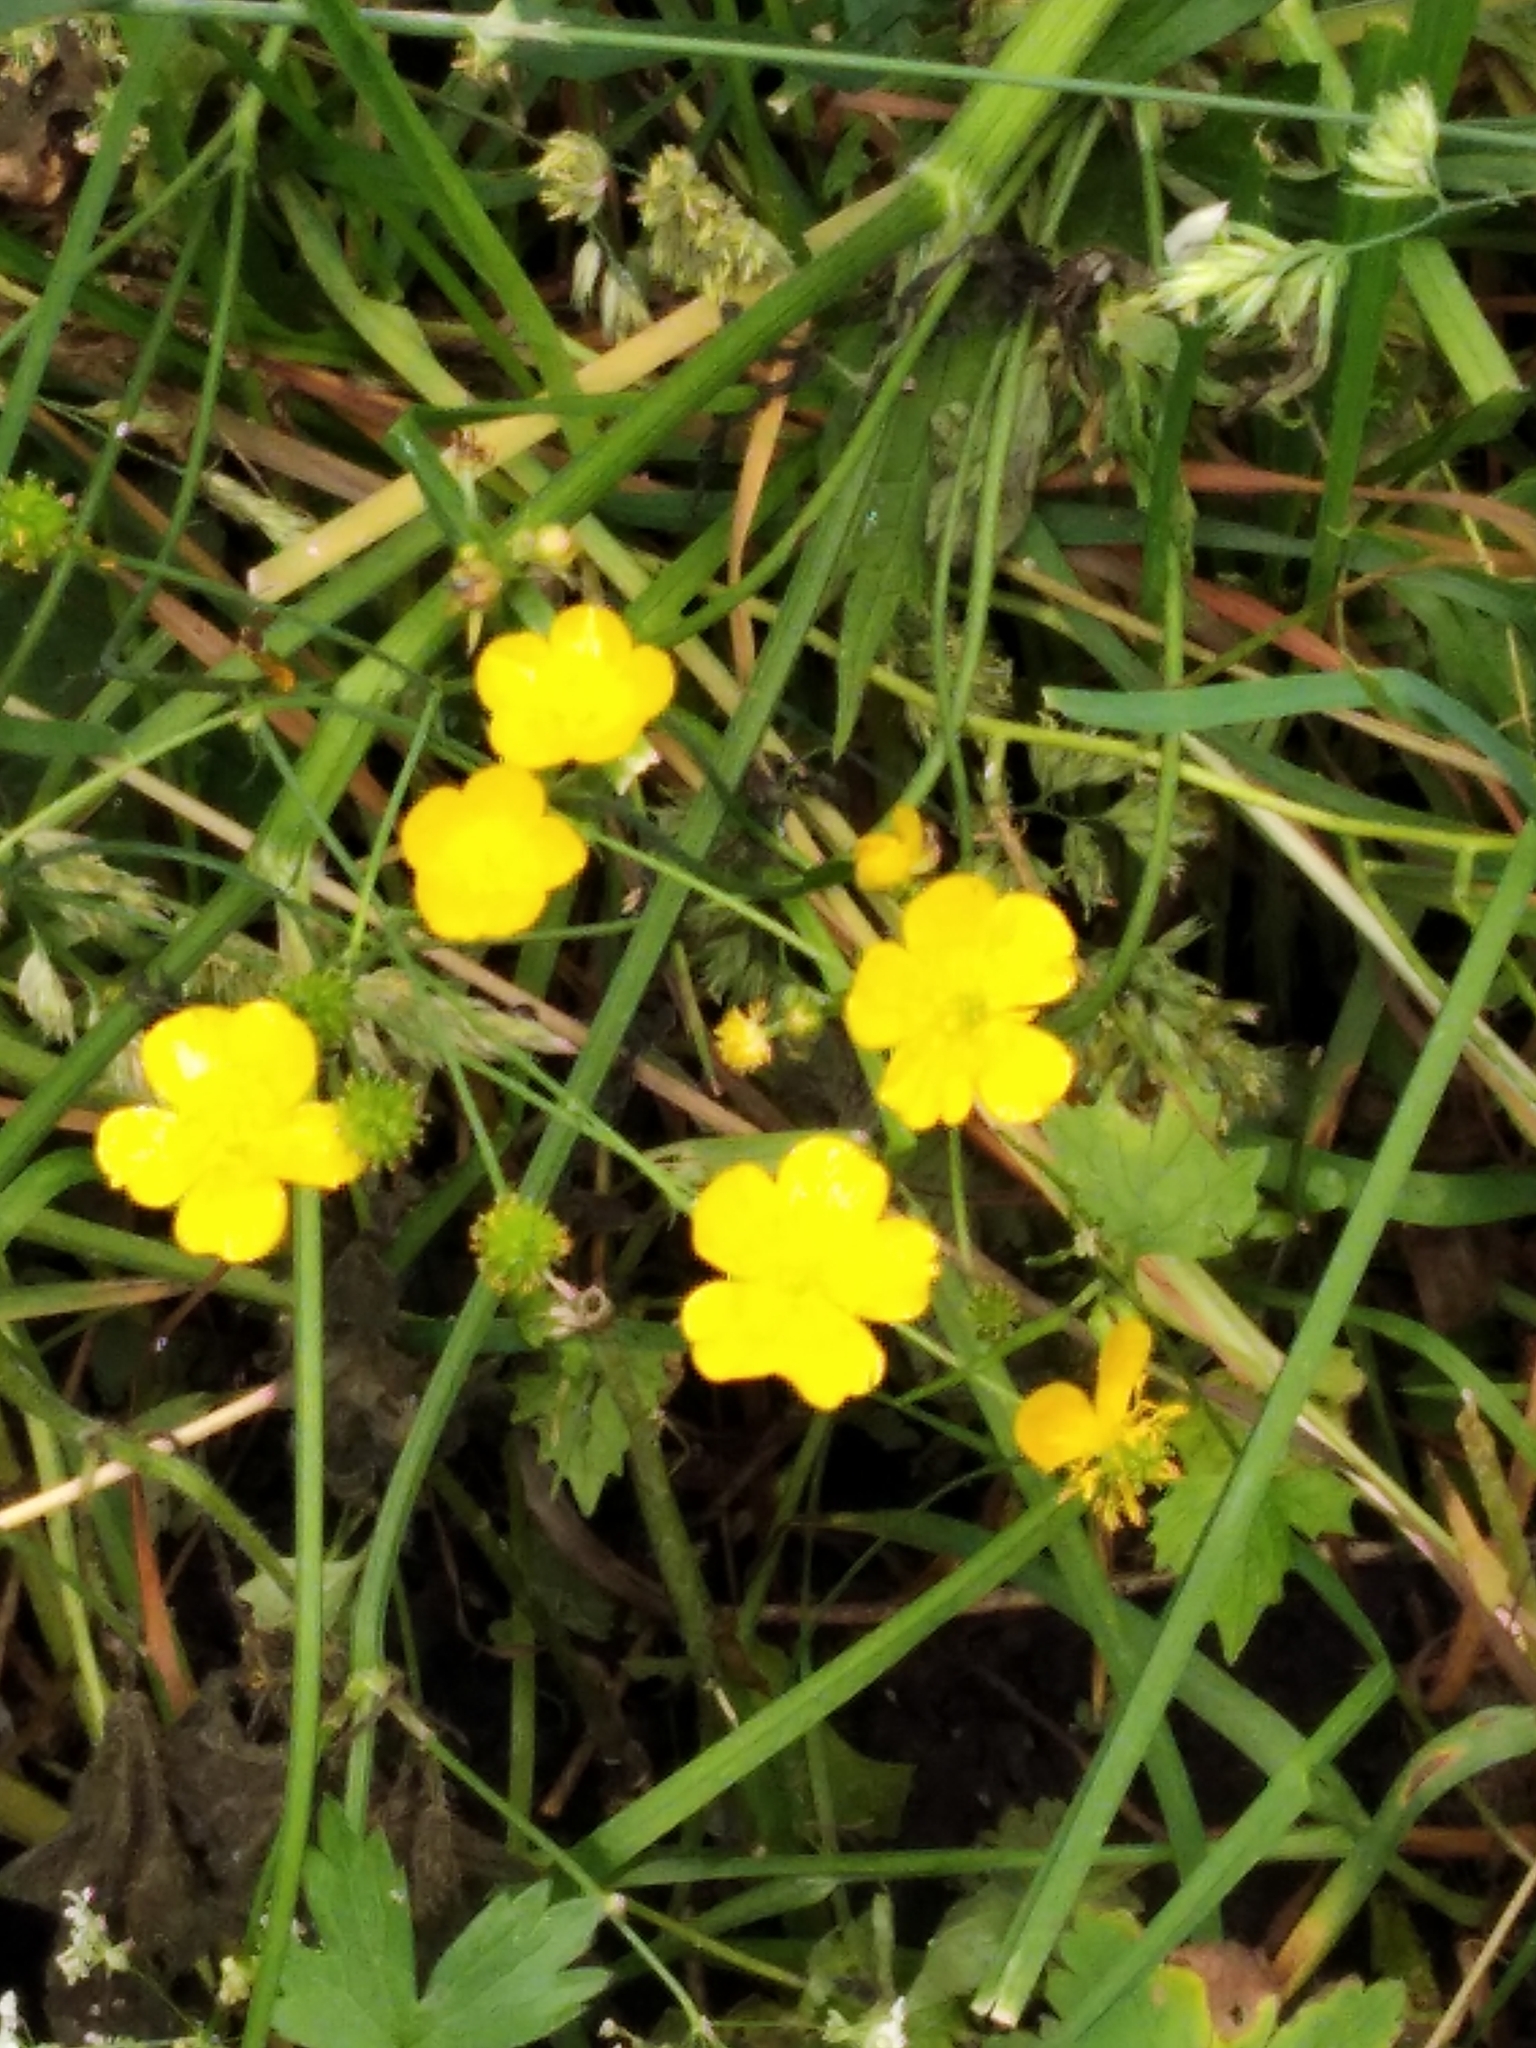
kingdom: Plantae
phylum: Tracheophyta
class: Magnoliopsida
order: Ranunculales
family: Ranunculaceae
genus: Ranunculus
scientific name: Ranunculus repens
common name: Creeping buttercup
